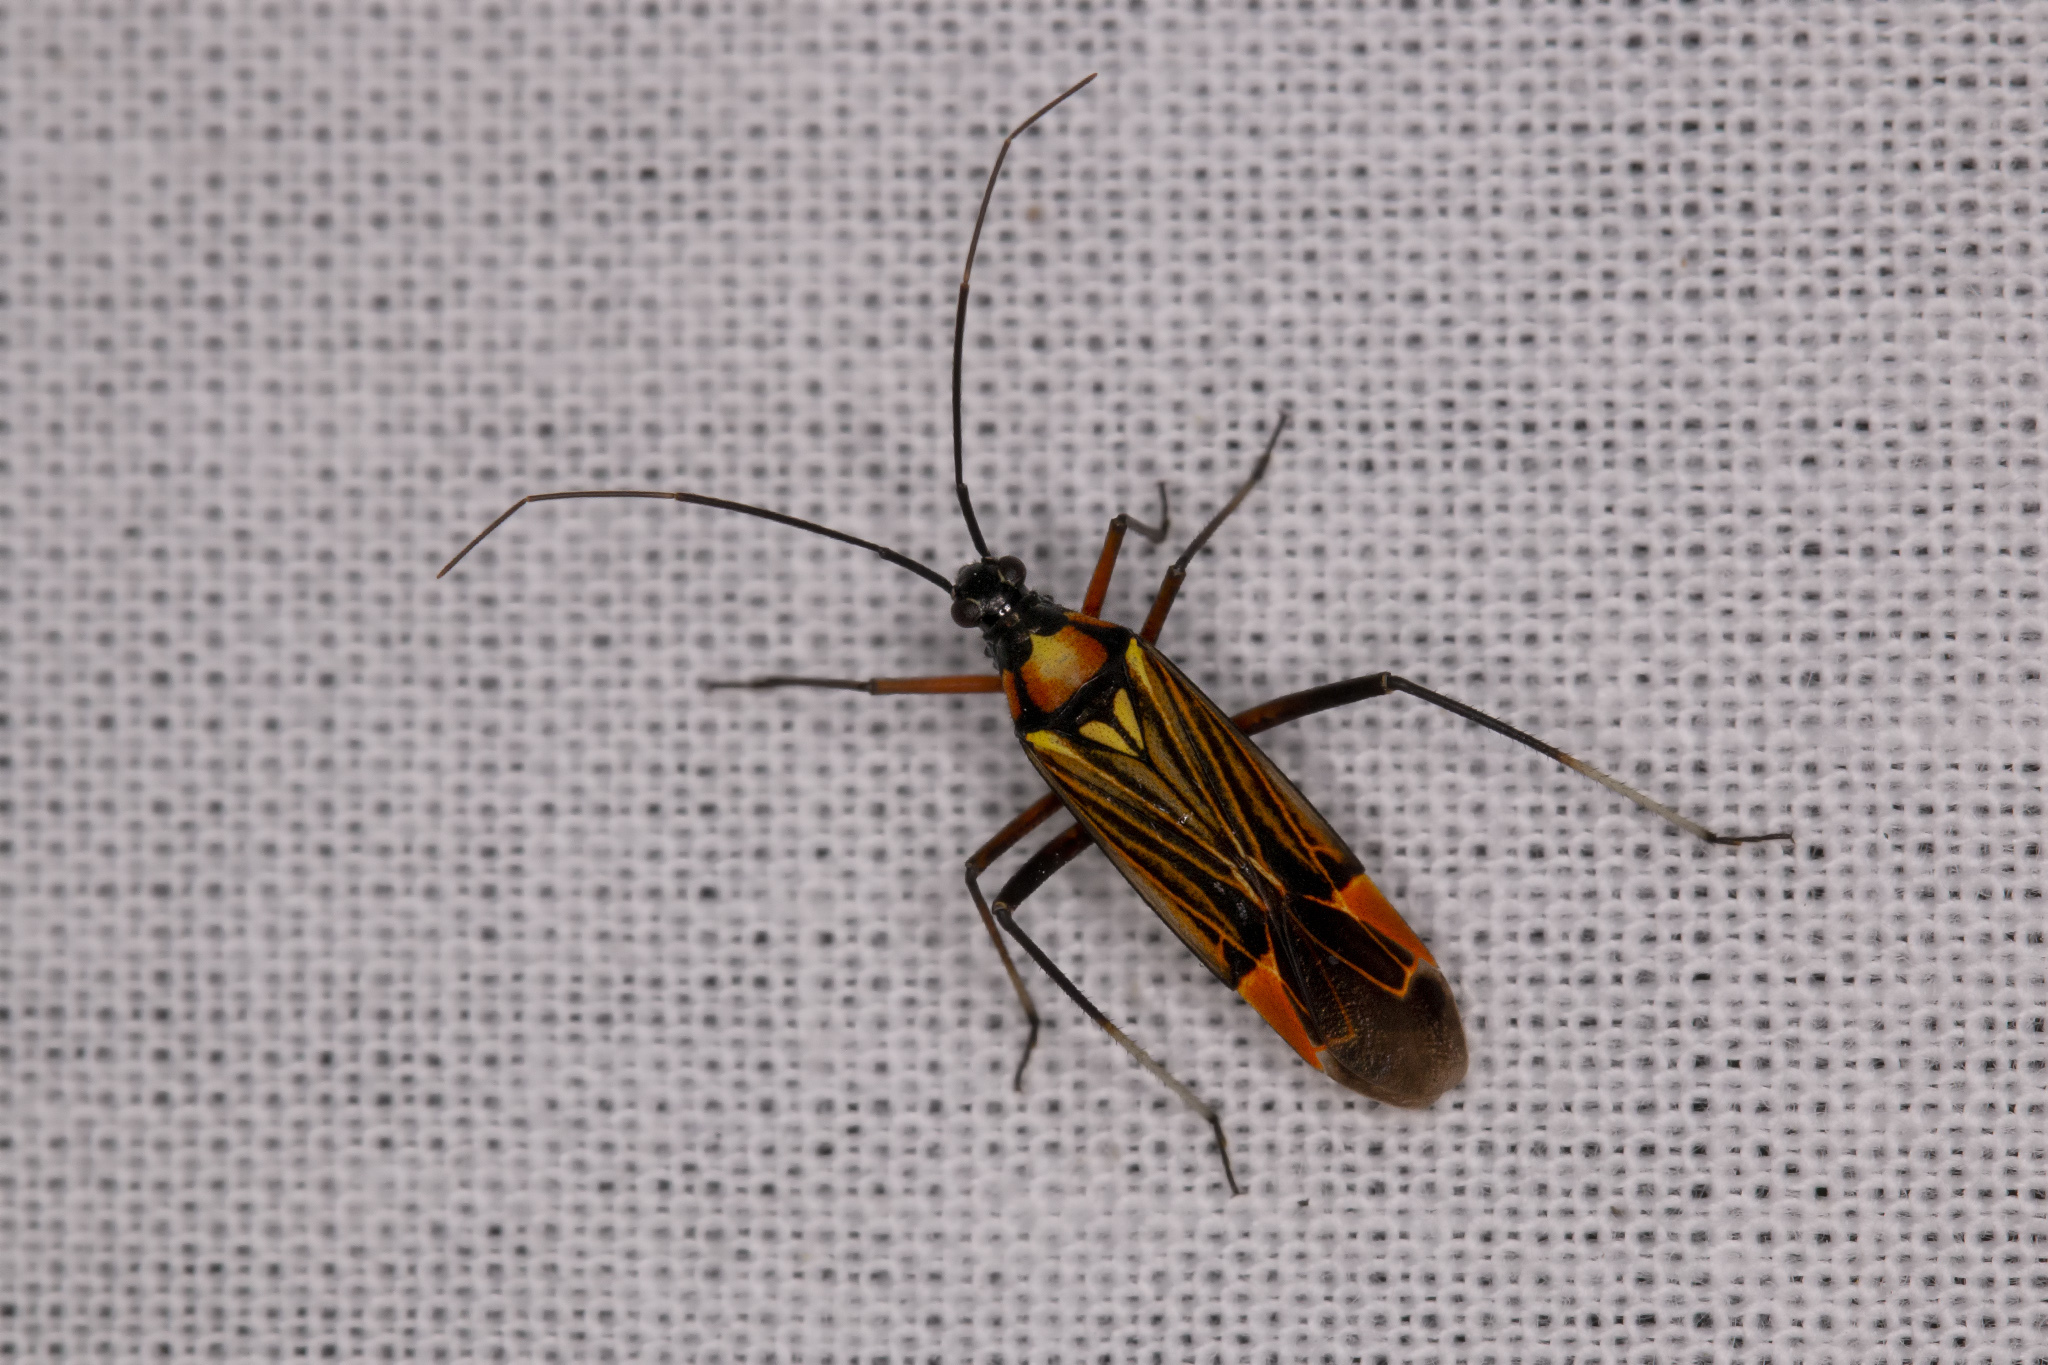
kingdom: Animalia
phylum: Arthropoda
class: Insecta
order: Hemiptera
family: Miridae
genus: Miris
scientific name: Miris striatus
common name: Fine streaked bugkin
